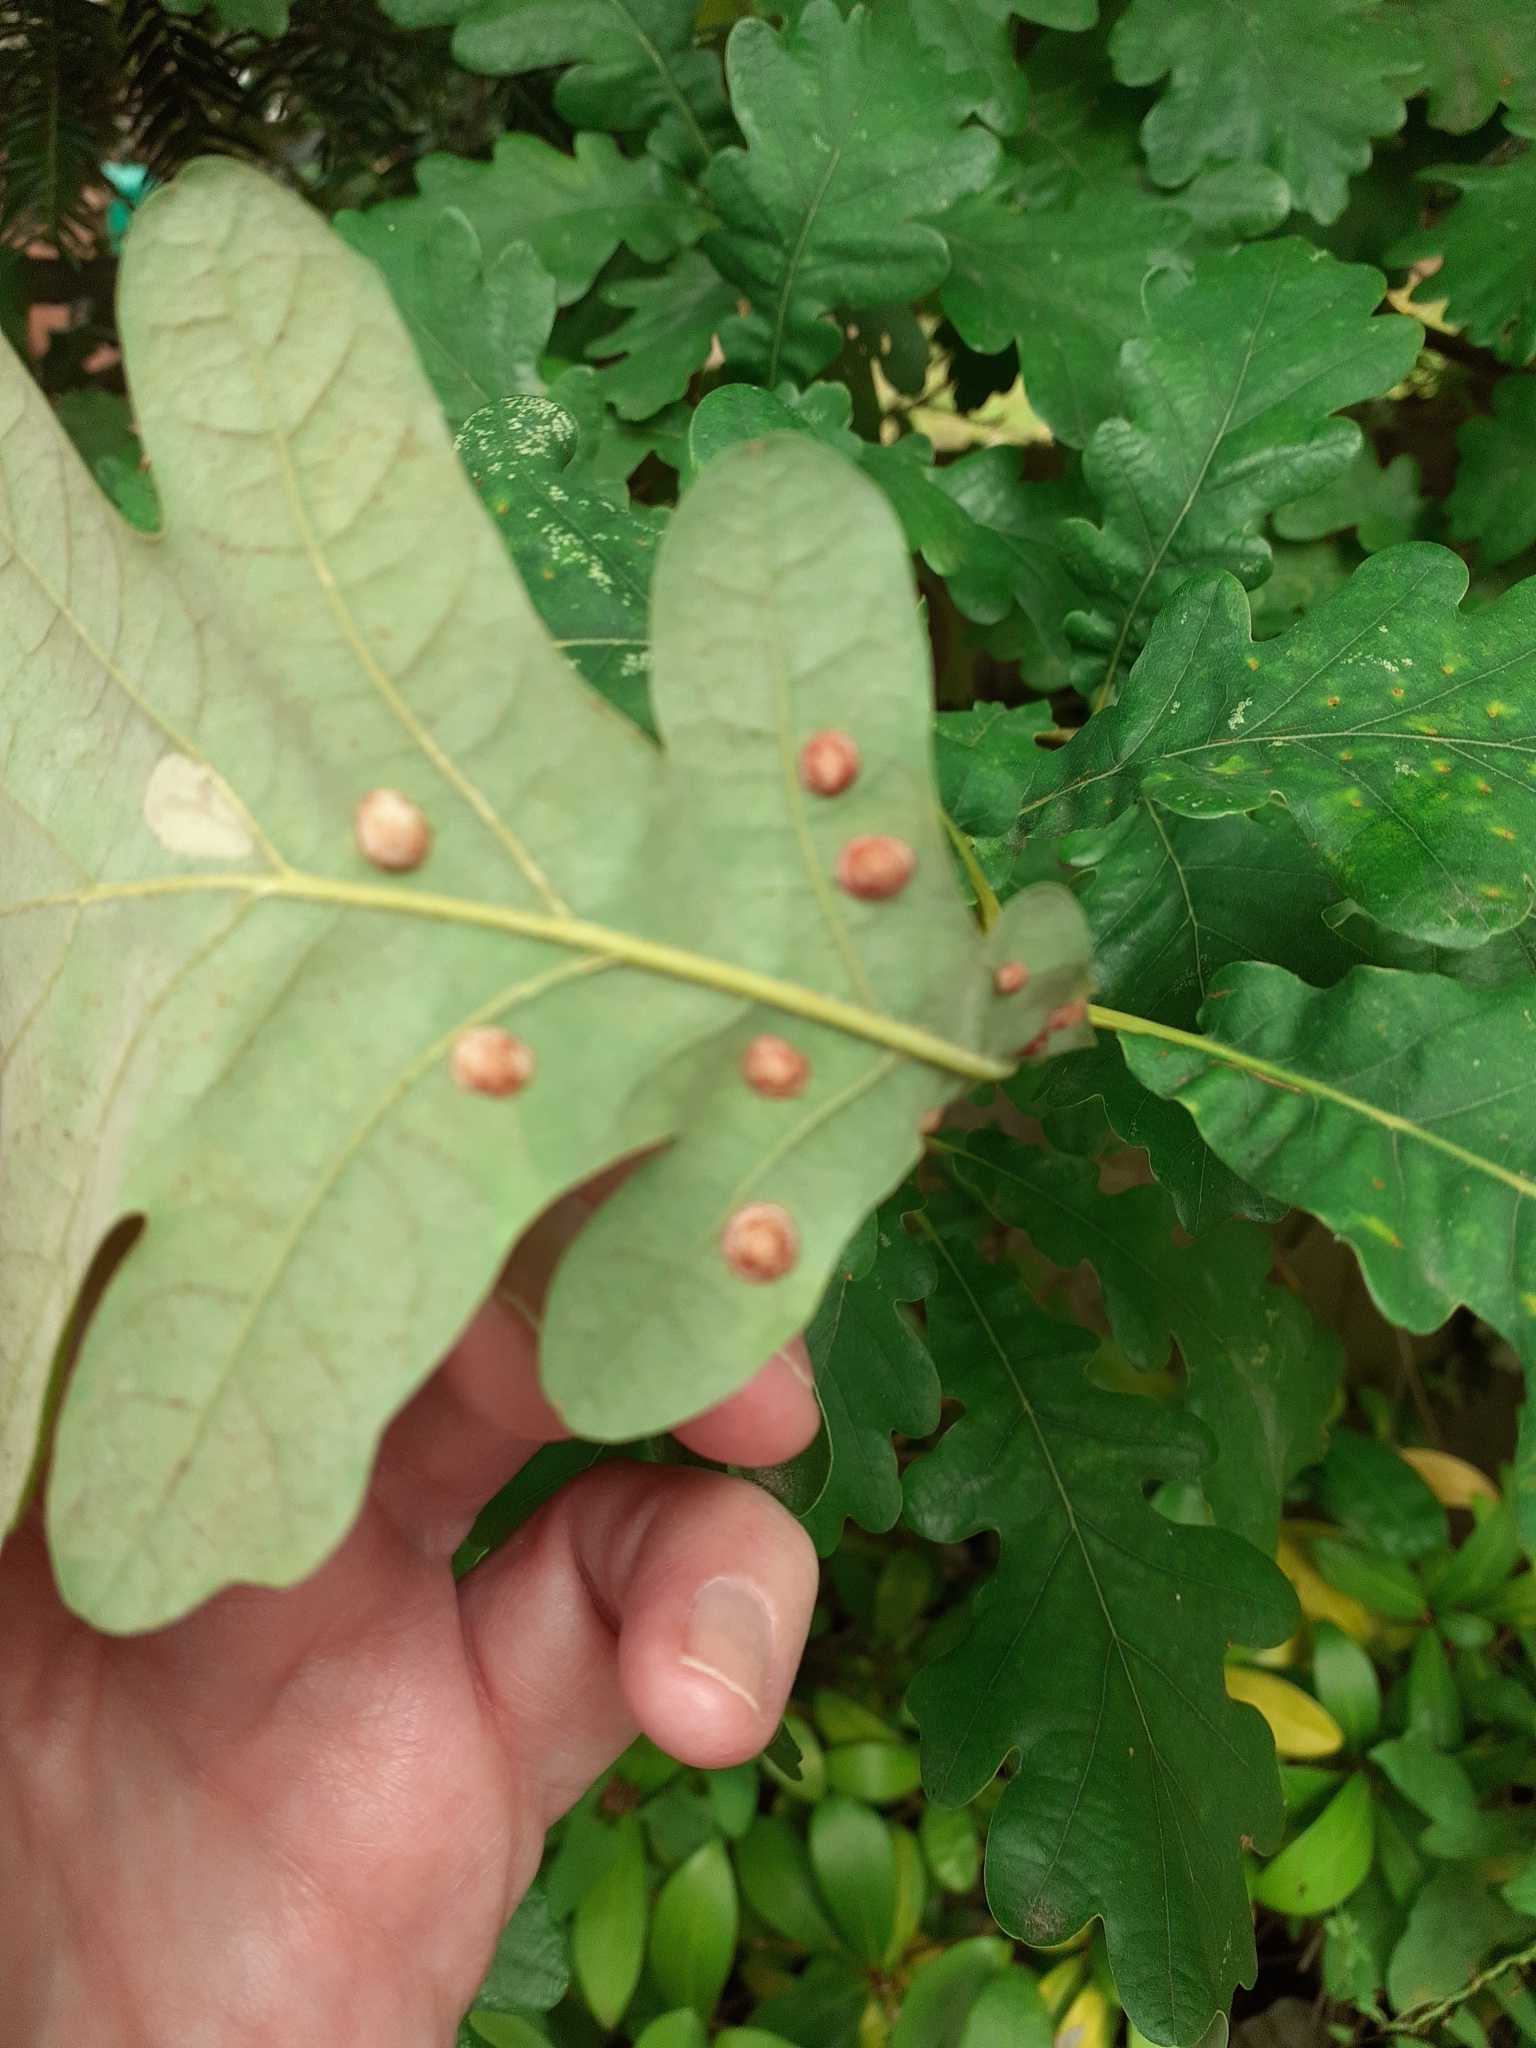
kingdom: Animalia
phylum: Arthropoda
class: Insecta
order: Hymenoptera
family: Cynipidae
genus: Neuroterus
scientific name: Neuroterus quercusbaccarum
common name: Common spangle gall
